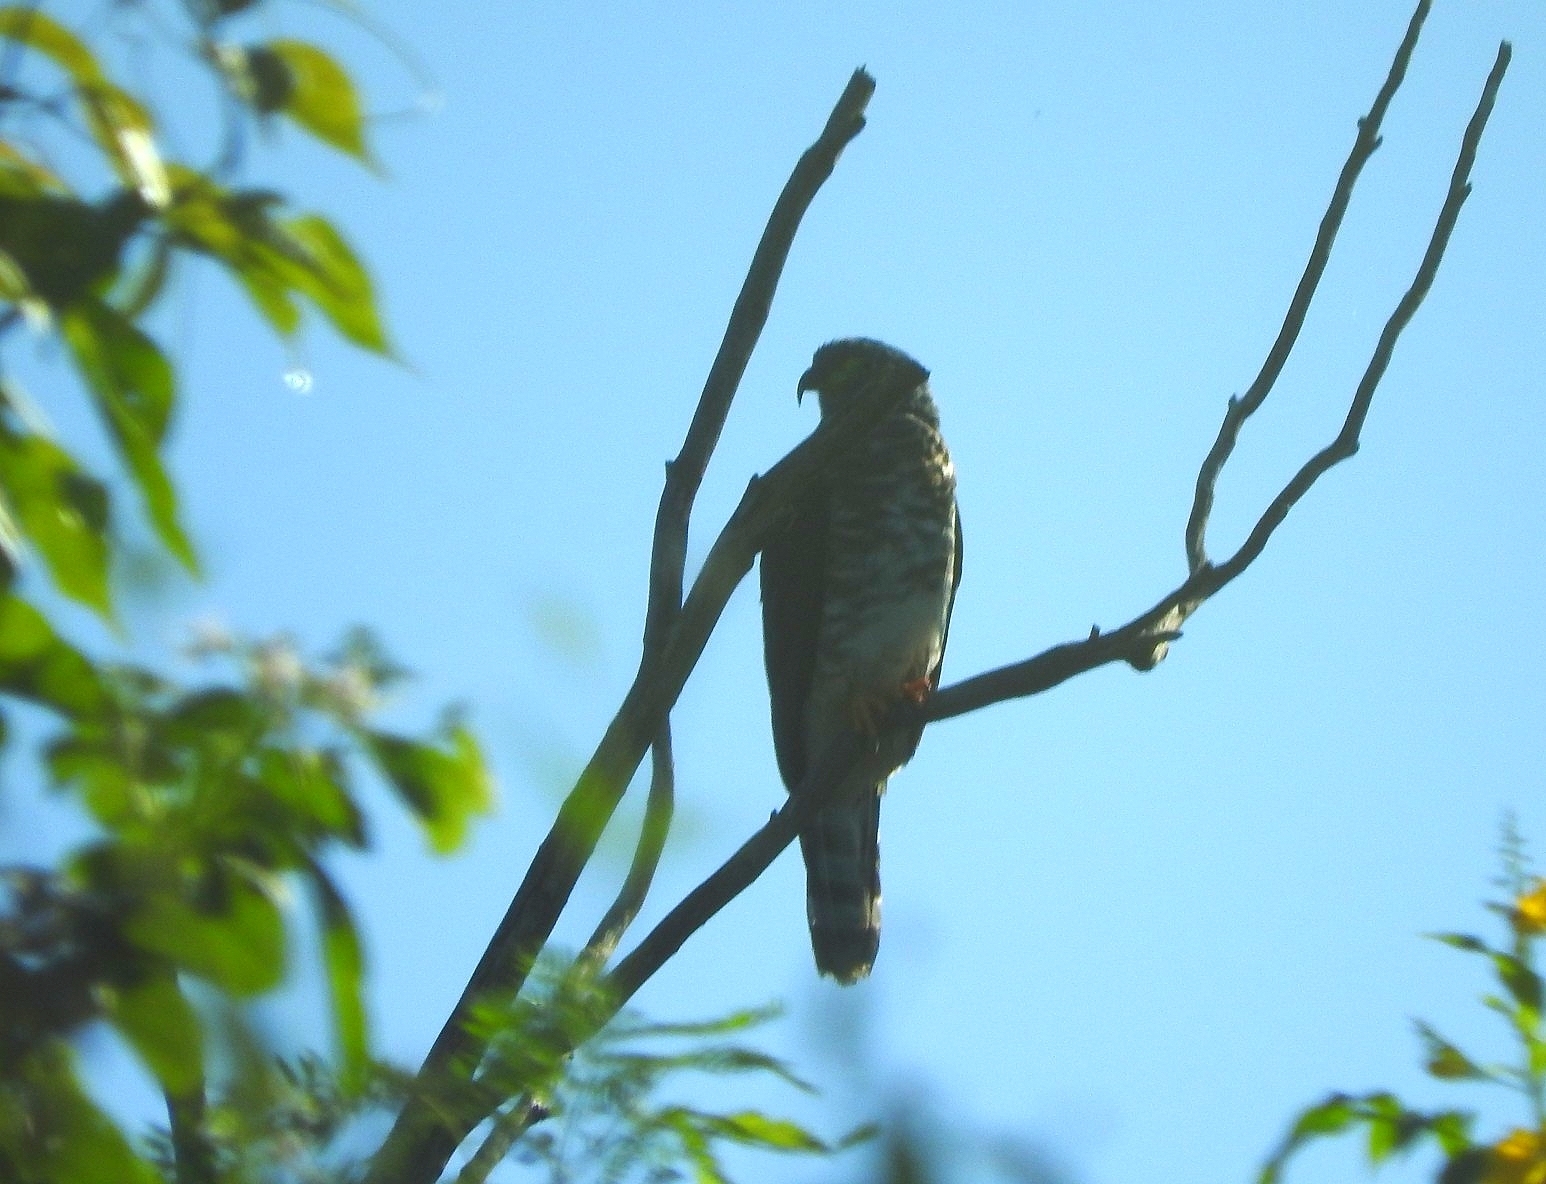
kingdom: Animalia
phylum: Chordata
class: Aves
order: Accipitriformes
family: Accipitridae
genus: Chondrohierax
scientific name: Chondrohierax uncinatus
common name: Hook-billed kite
